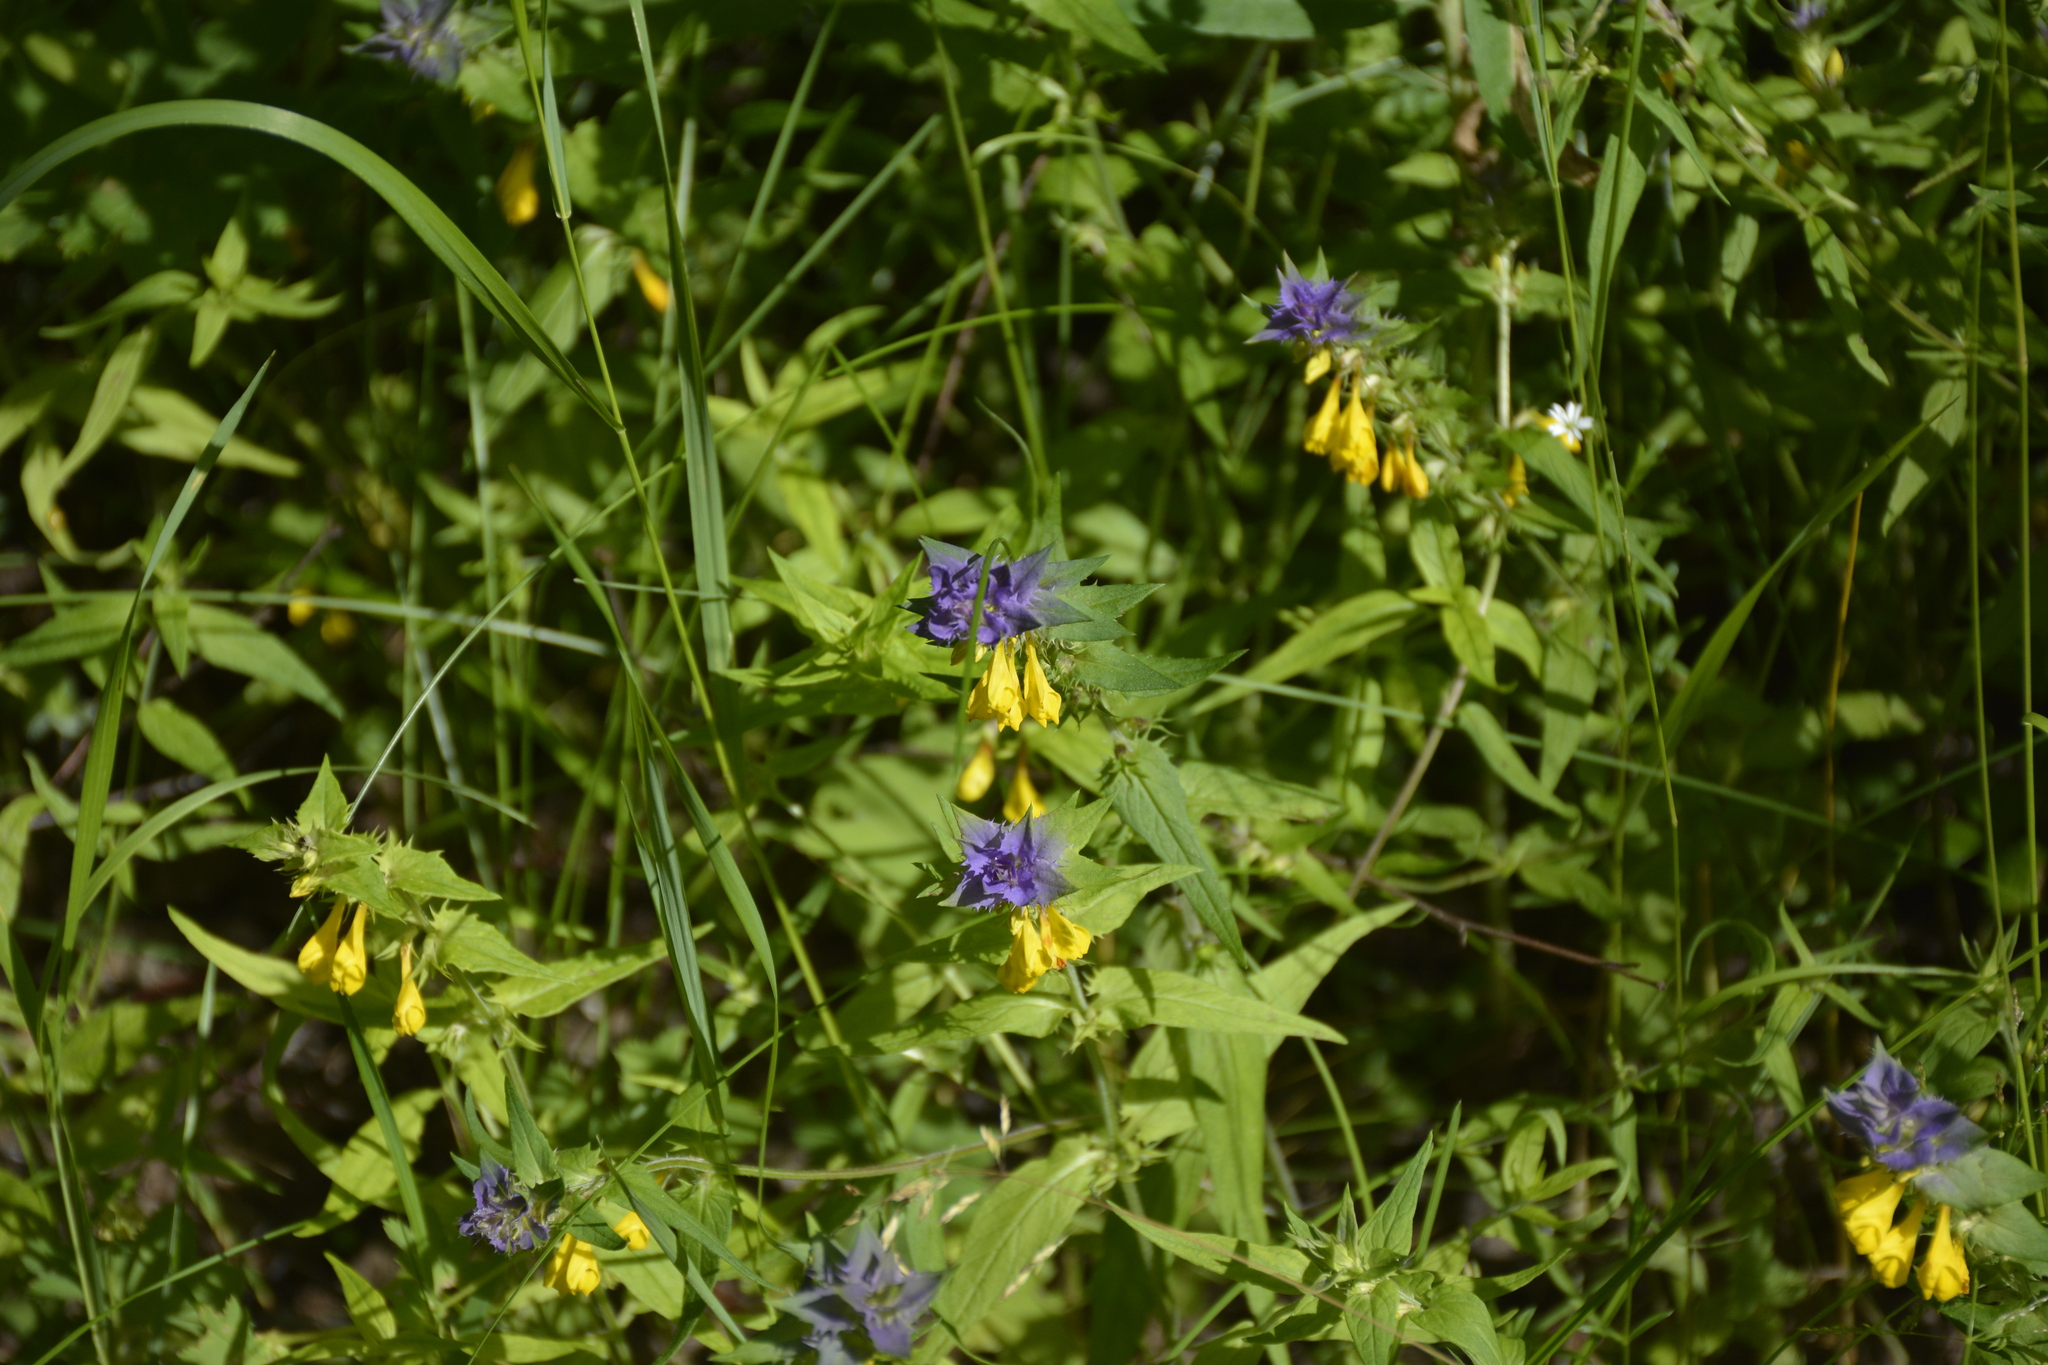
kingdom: Plantae
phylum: Tracheophyta
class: Magnoliopsida
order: Lamiales
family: Orobanchaceae
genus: Melampyrum
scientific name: Melampyrum nemorosum
